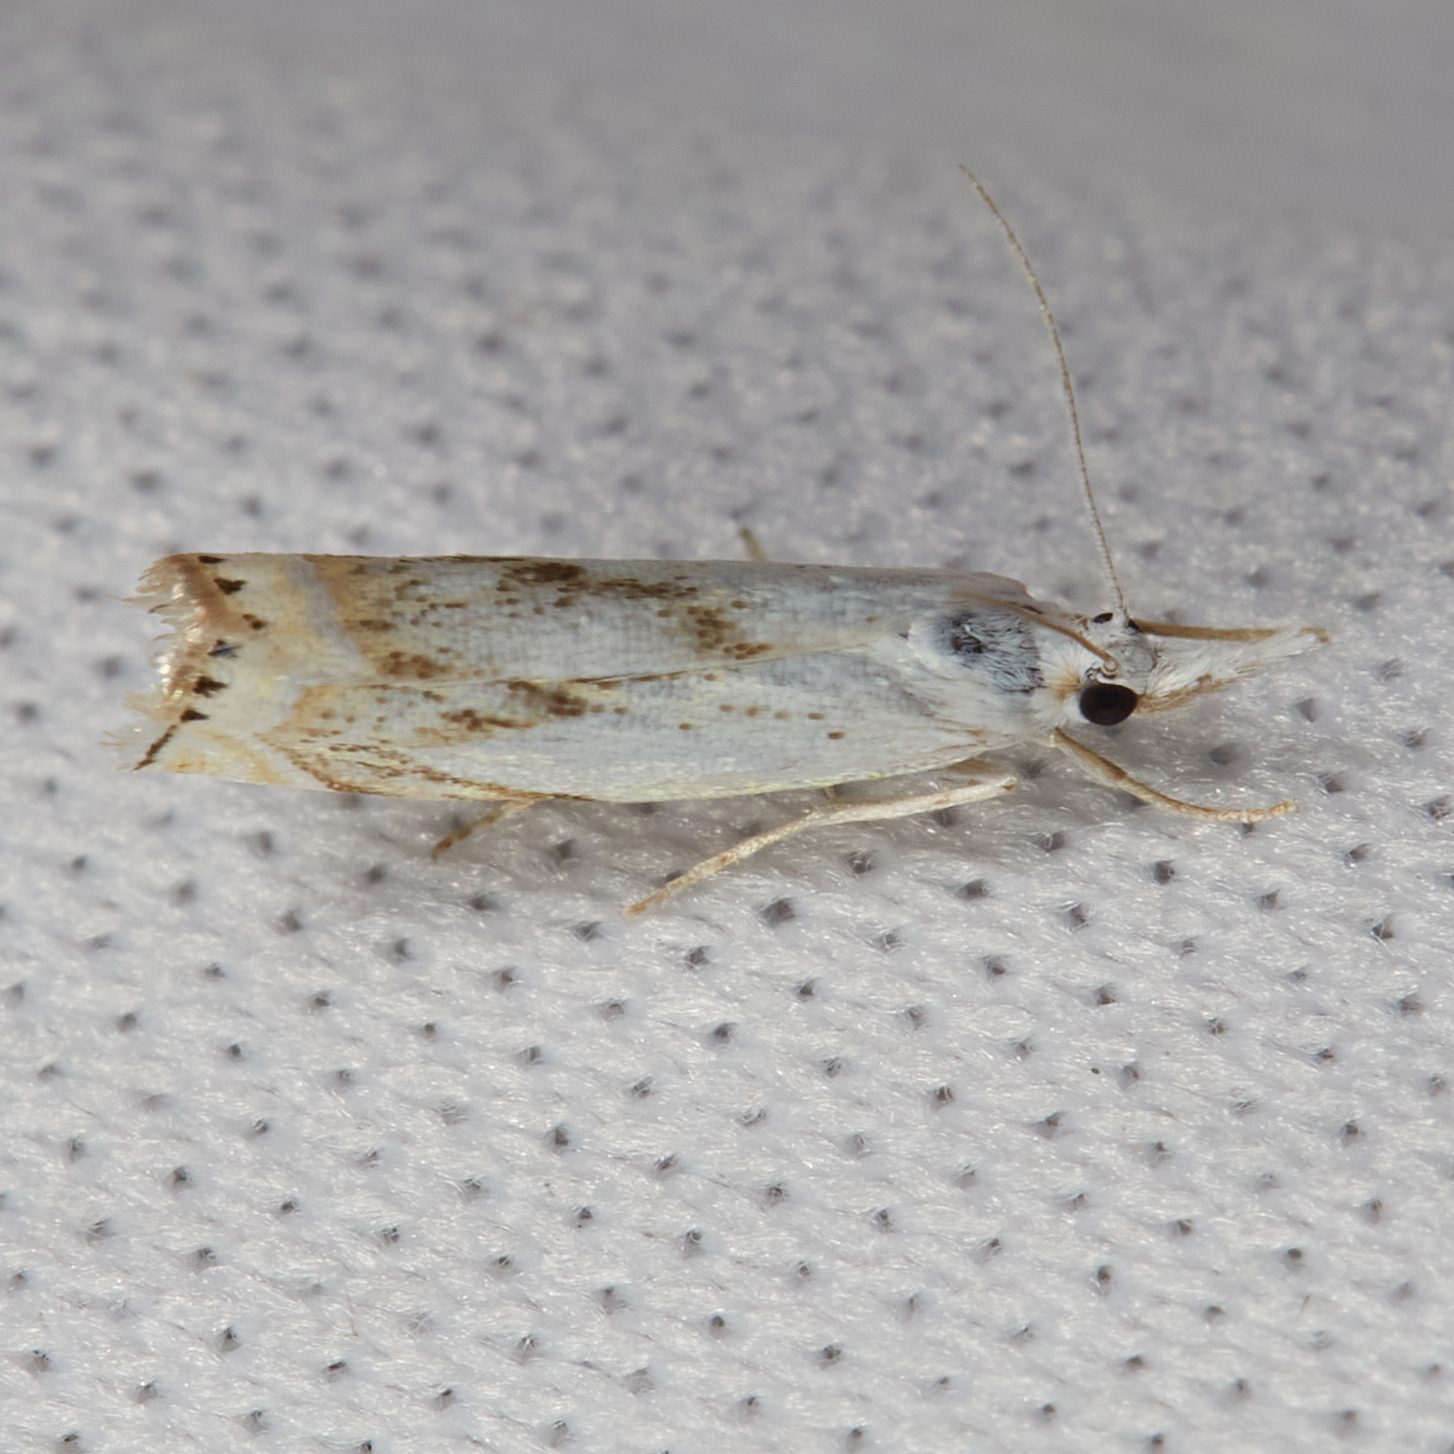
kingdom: Animalia
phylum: Arthropoda
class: Insecta
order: Lepidoptera
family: Crambidae
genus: Crambus
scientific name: Crambus albellus
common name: Small white grass-veneer
